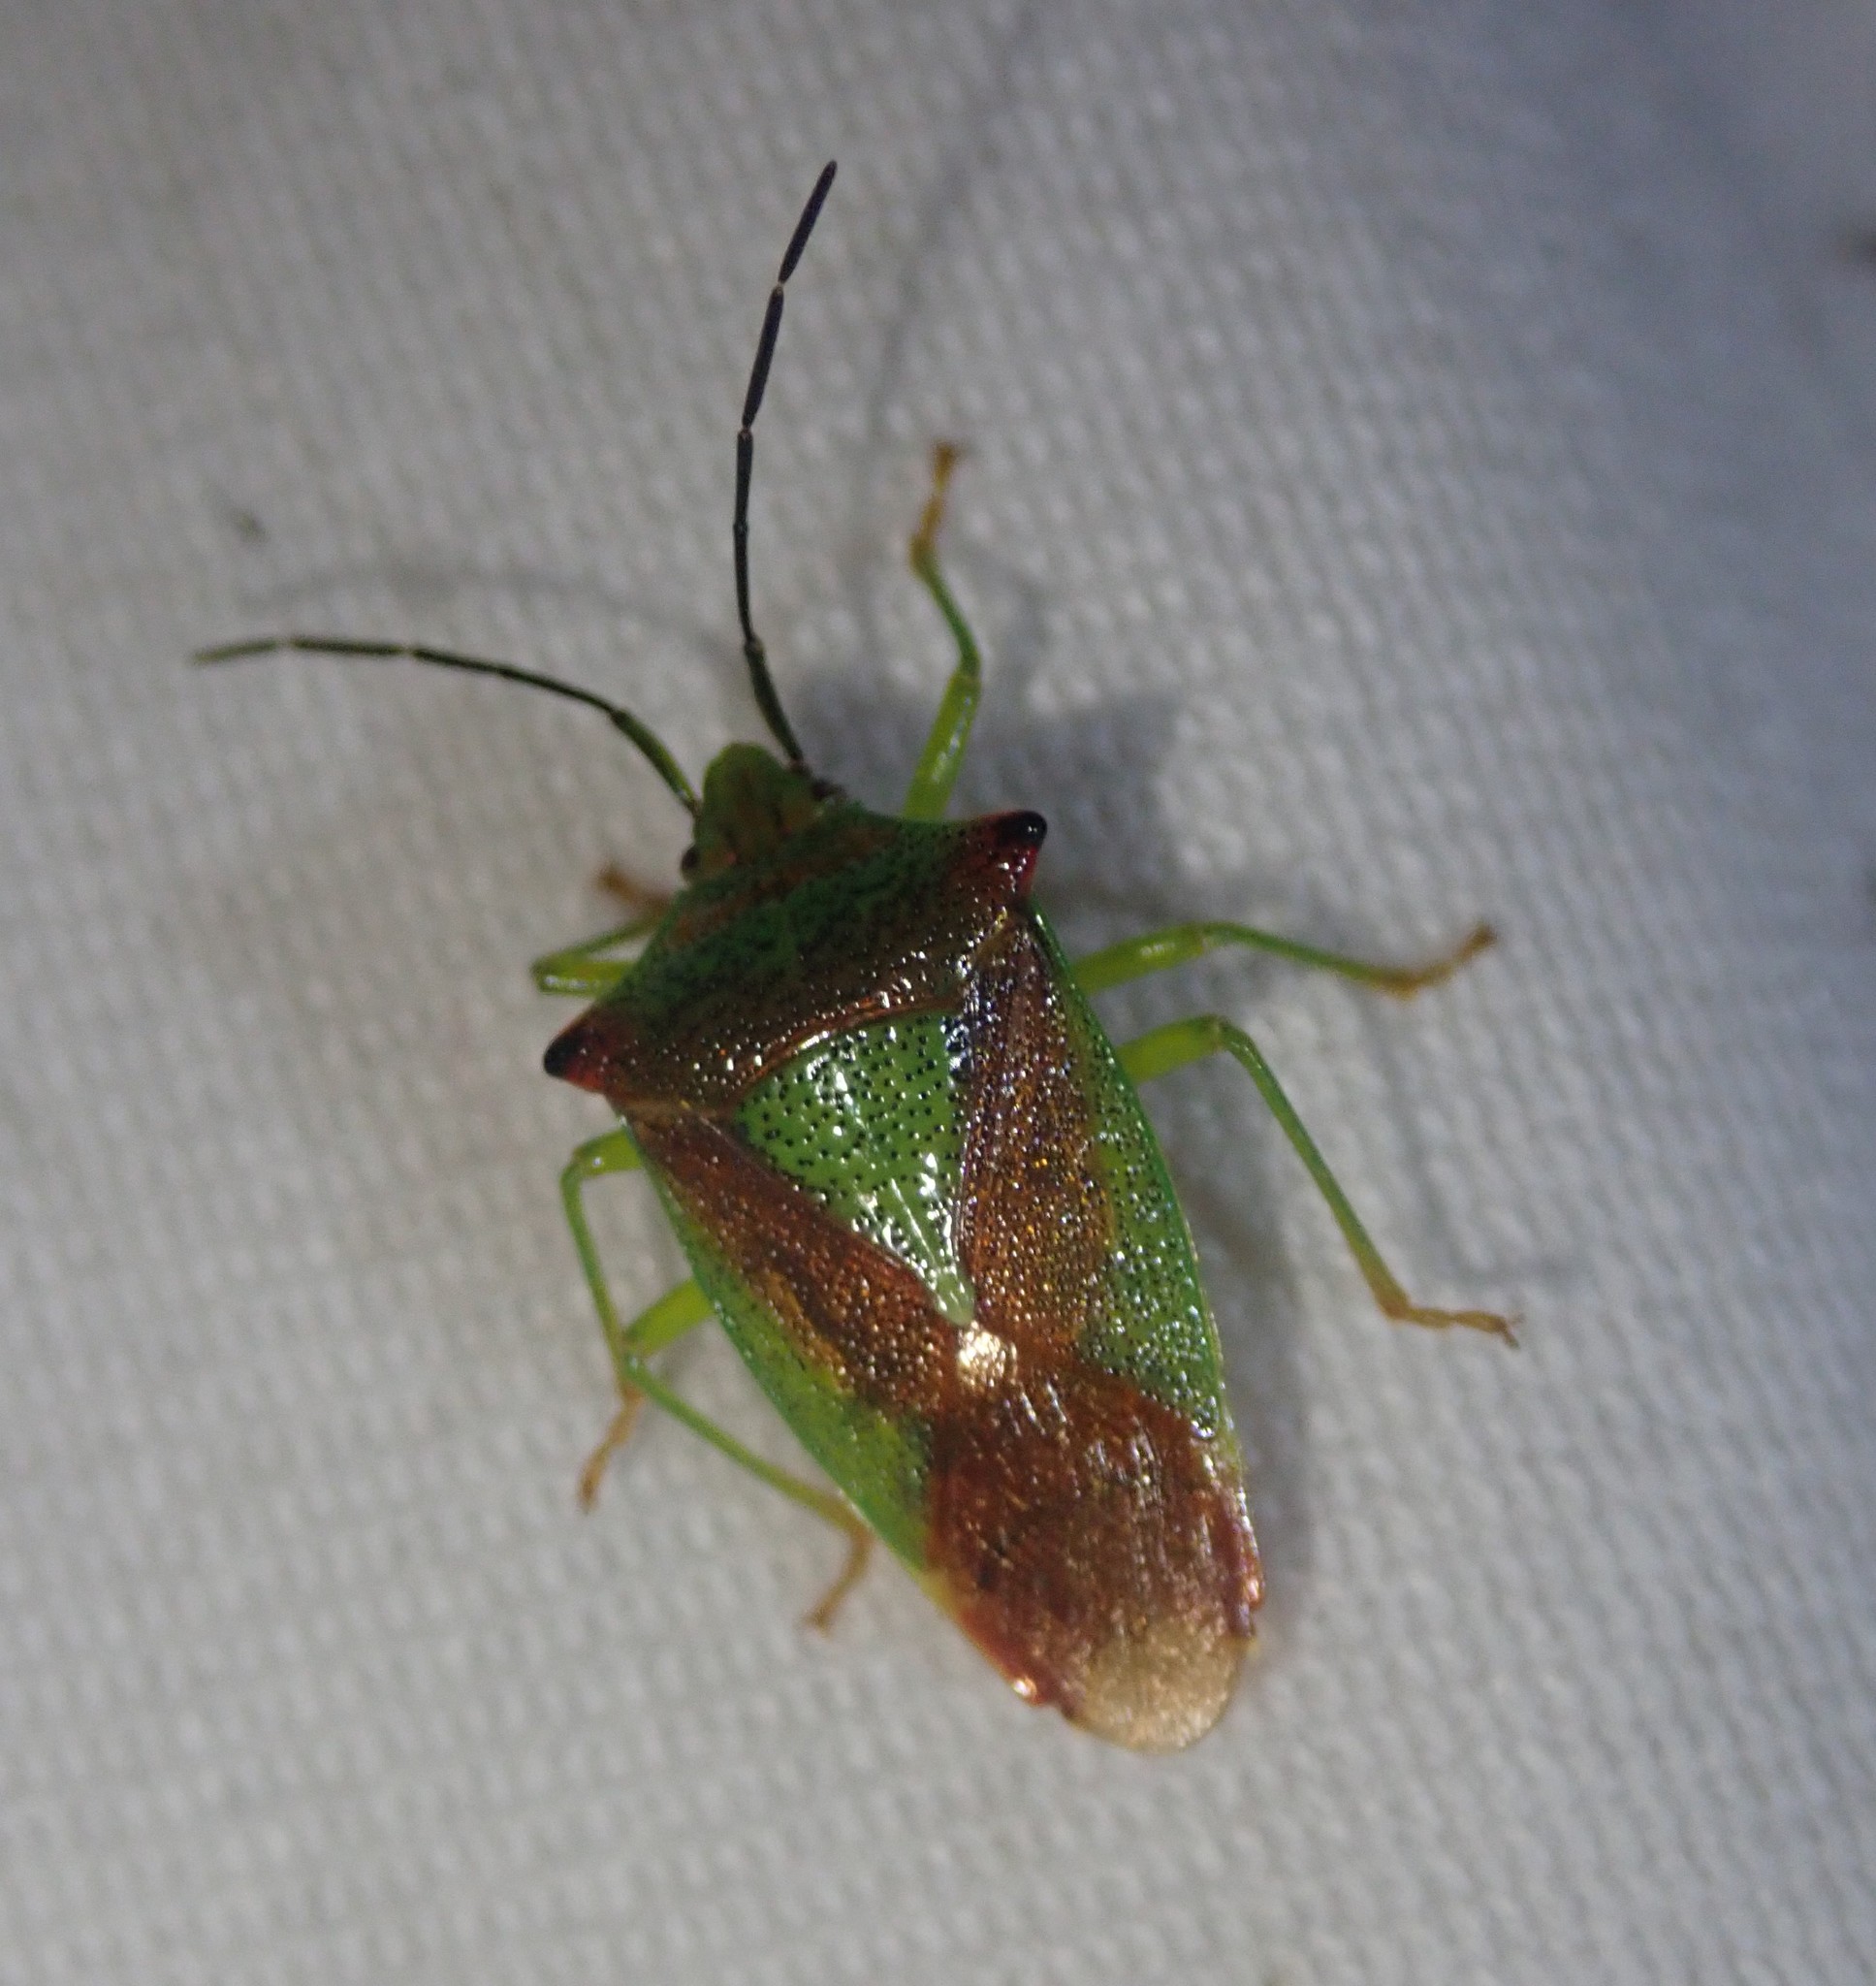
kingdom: Animalia
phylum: Arthropoda
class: Insecta
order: Hemiptera
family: Acanthosomatidae
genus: Acanthosoma
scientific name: Acanthosoma haemorrhoidale
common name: Hawthorn shieldbug
